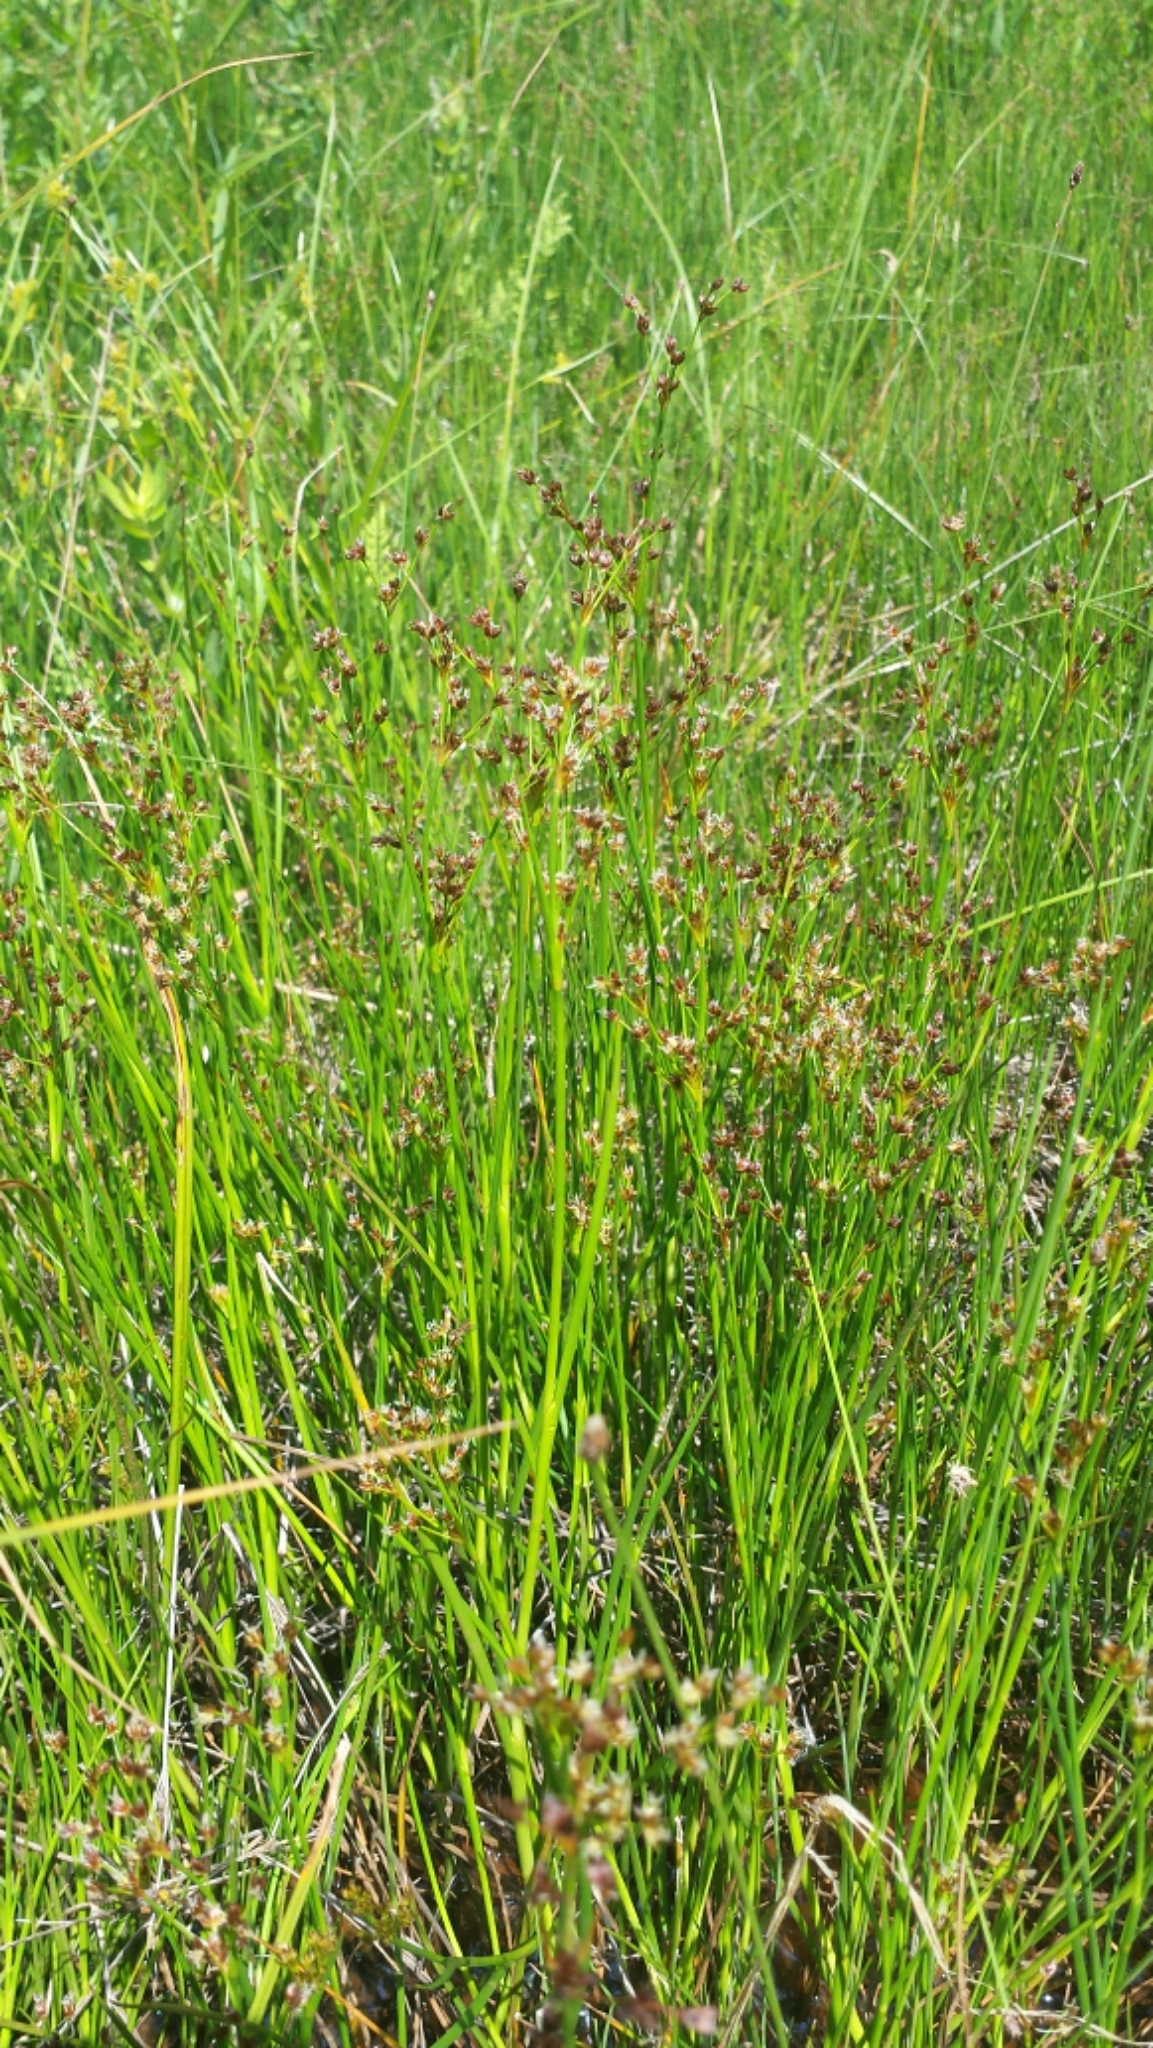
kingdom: Plantae
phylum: Tracheophyta
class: Liliopsida
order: Poales
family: Juncaceae
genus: Juncus
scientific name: Juncus articulatus
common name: Jointed rush
